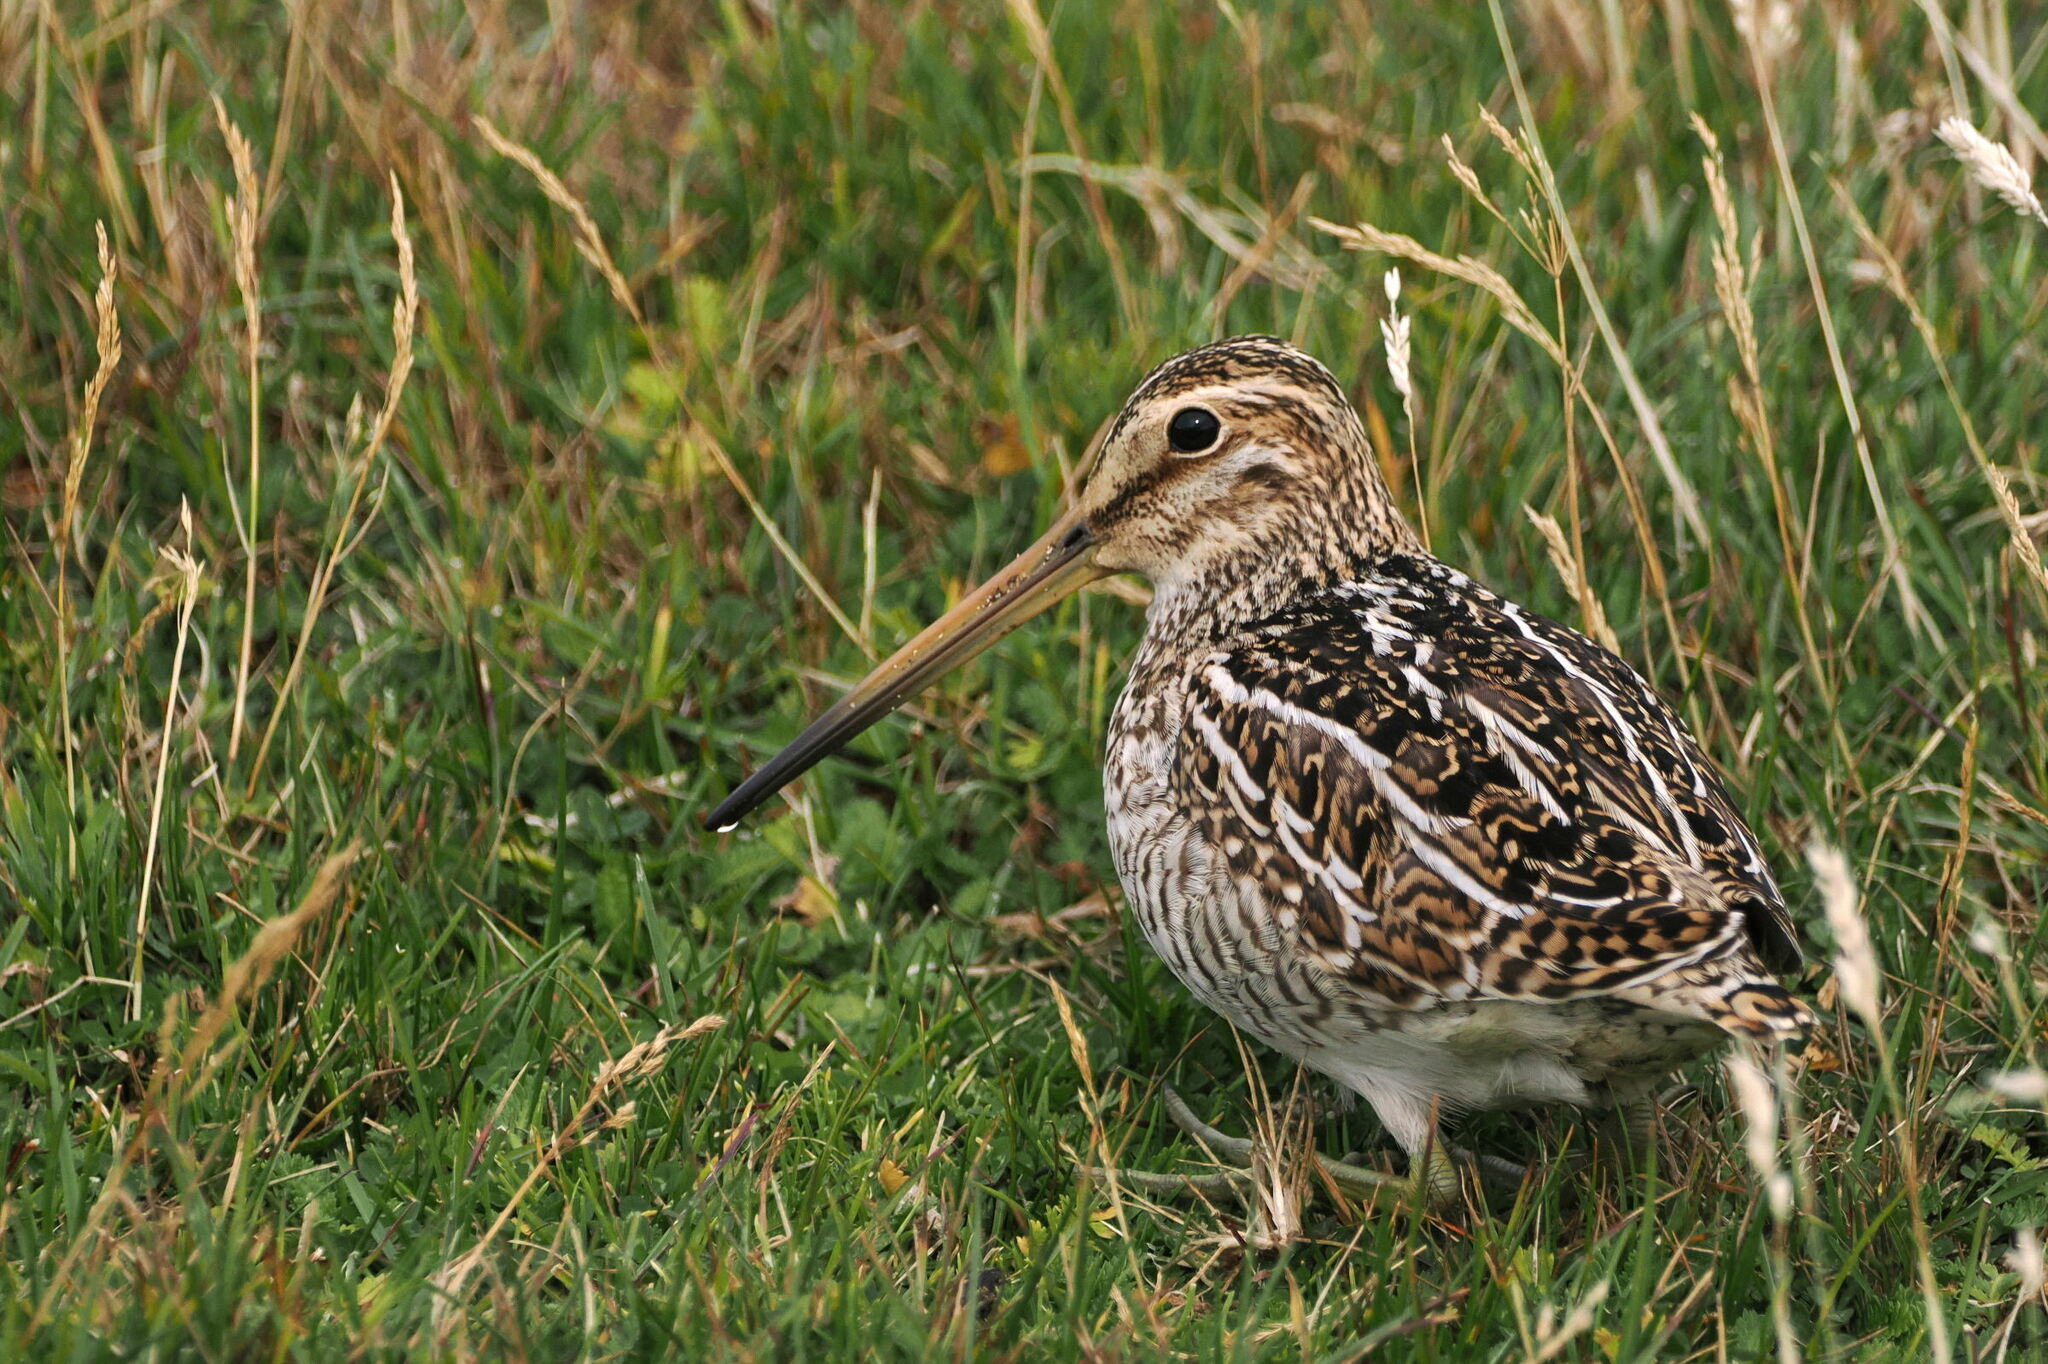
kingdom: Animalia
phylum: Chordata
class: Aves
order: Charadriiformes
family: Scolopacidae
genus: Gallinago
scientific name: Gallinago magellanica
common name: Magellanic snipe
